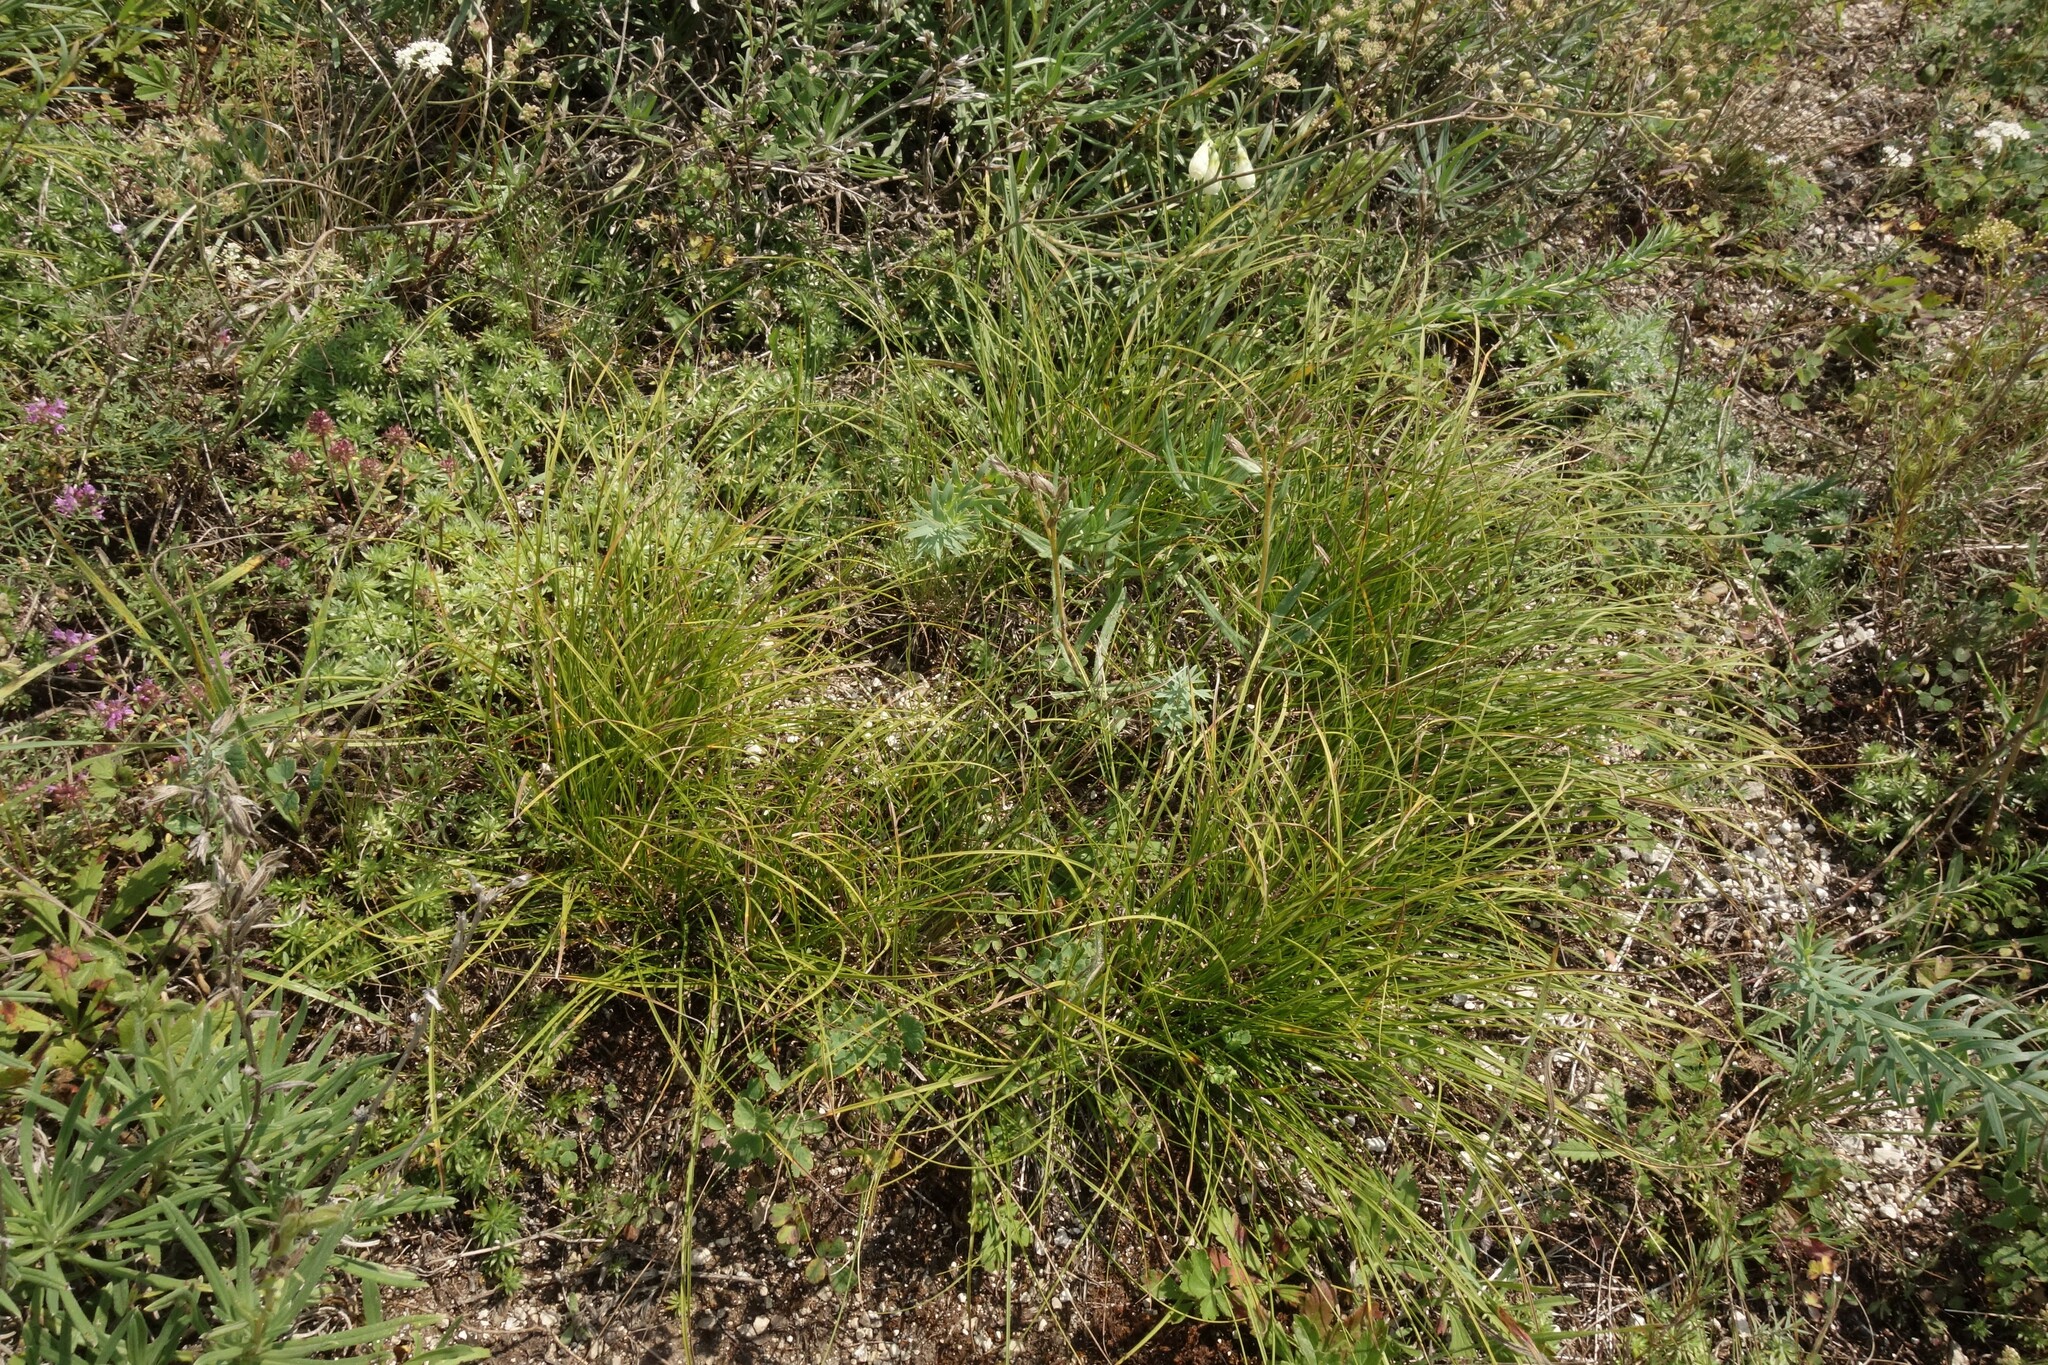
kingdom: Plantae
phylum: Tracheophyta
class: Liliopsida
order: Poales
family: Cyperaceae
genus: Carex
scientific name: Carex humilis
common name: Dwarf sedge
